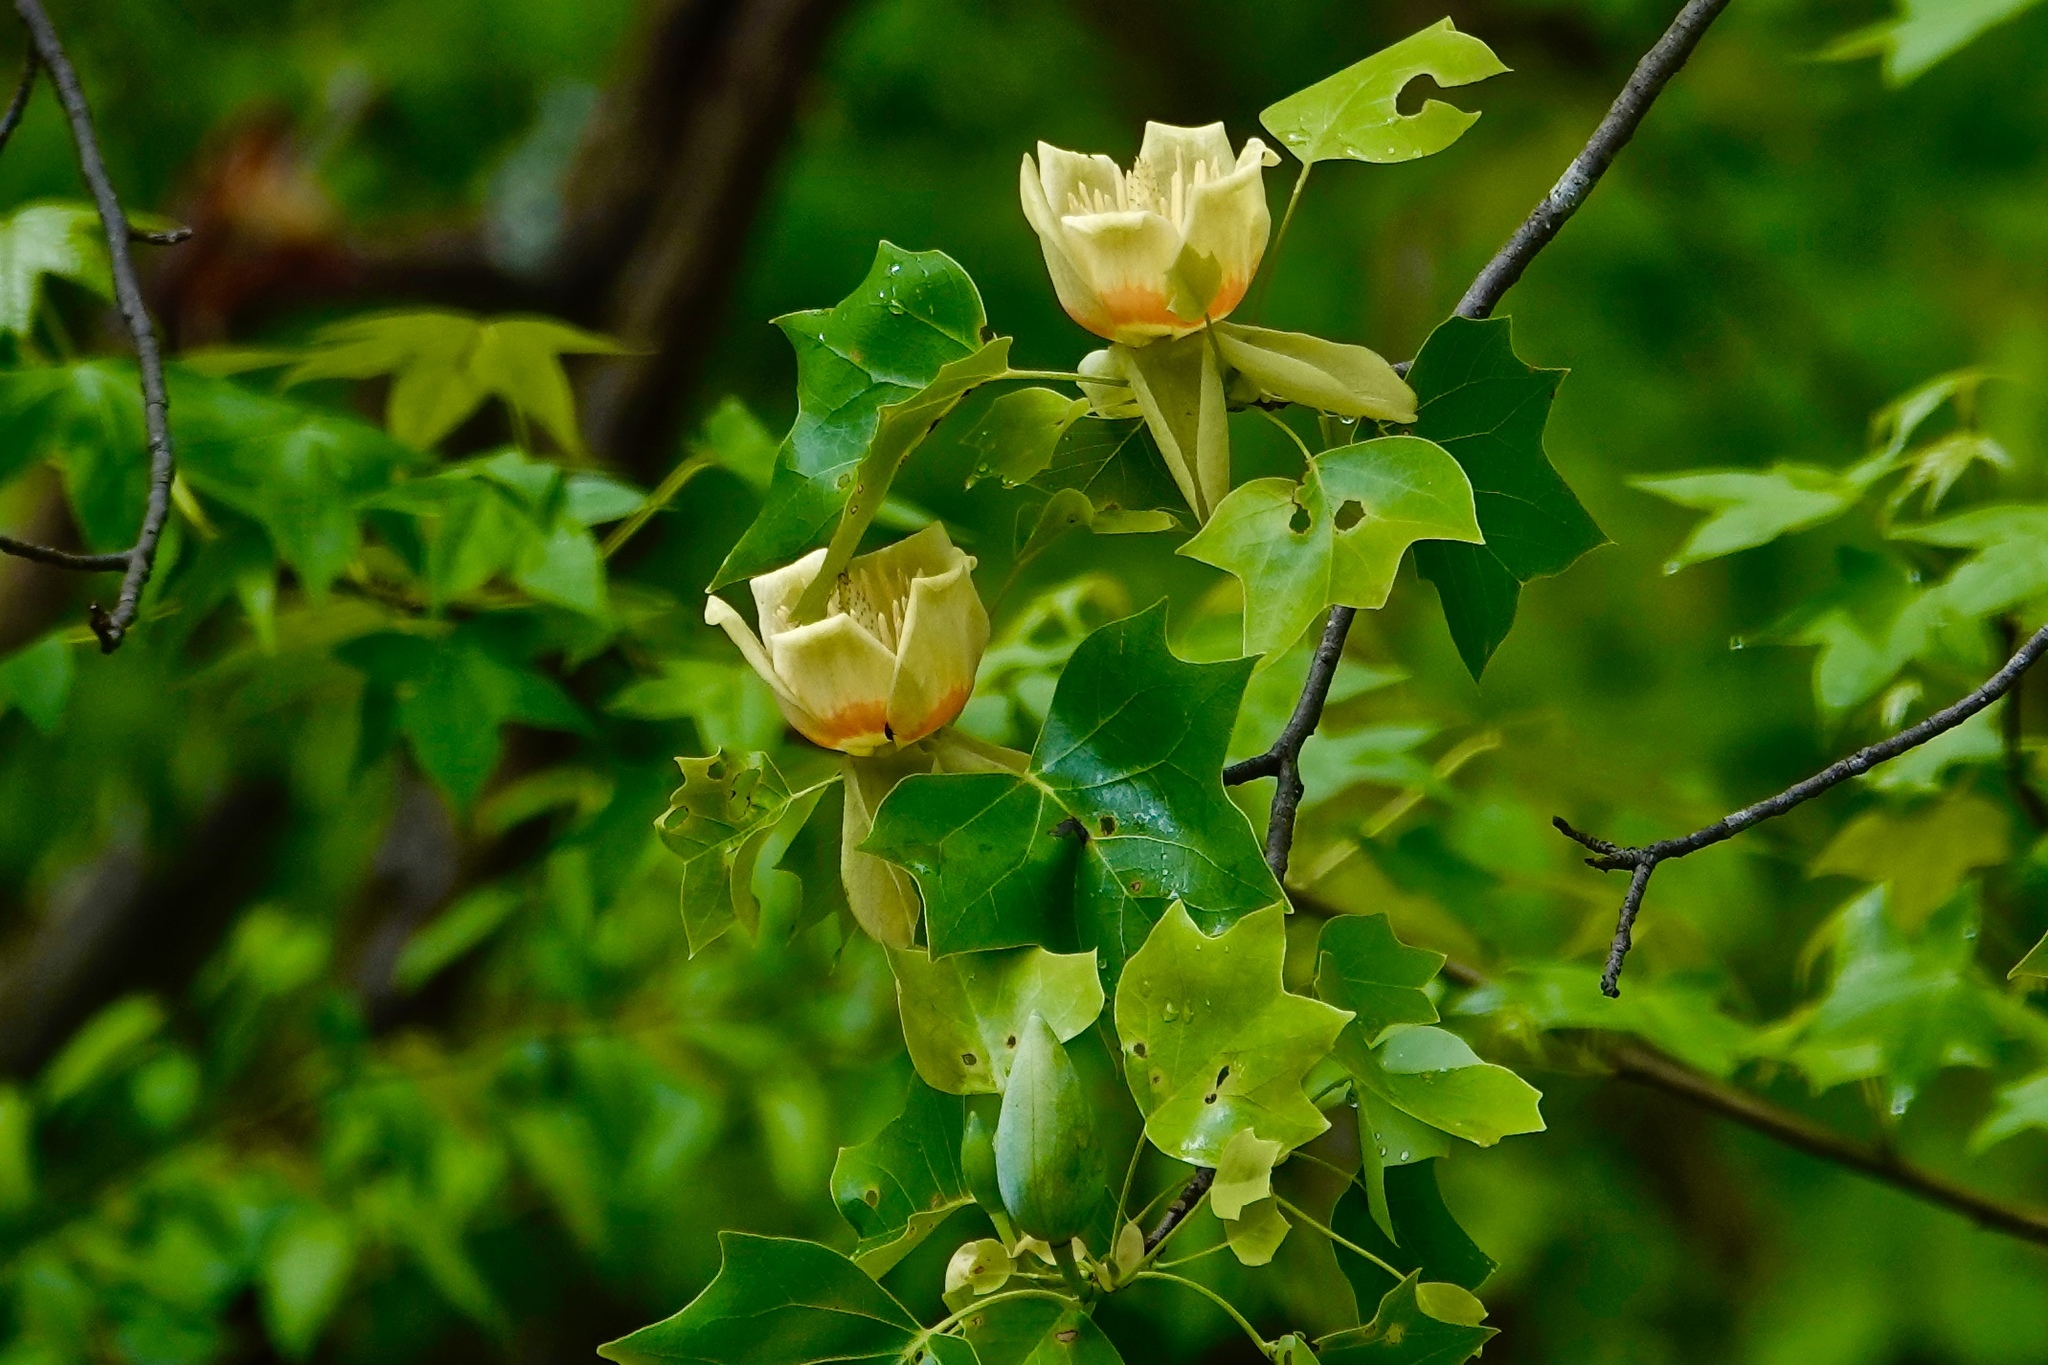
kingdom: Plantae
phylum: Tracheophyta
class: Magnoliopsida
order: Magnoliales
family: Magnoliaceae
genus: Liriodendron
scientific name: Liriodendron tulipifera
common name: Tulip tree
